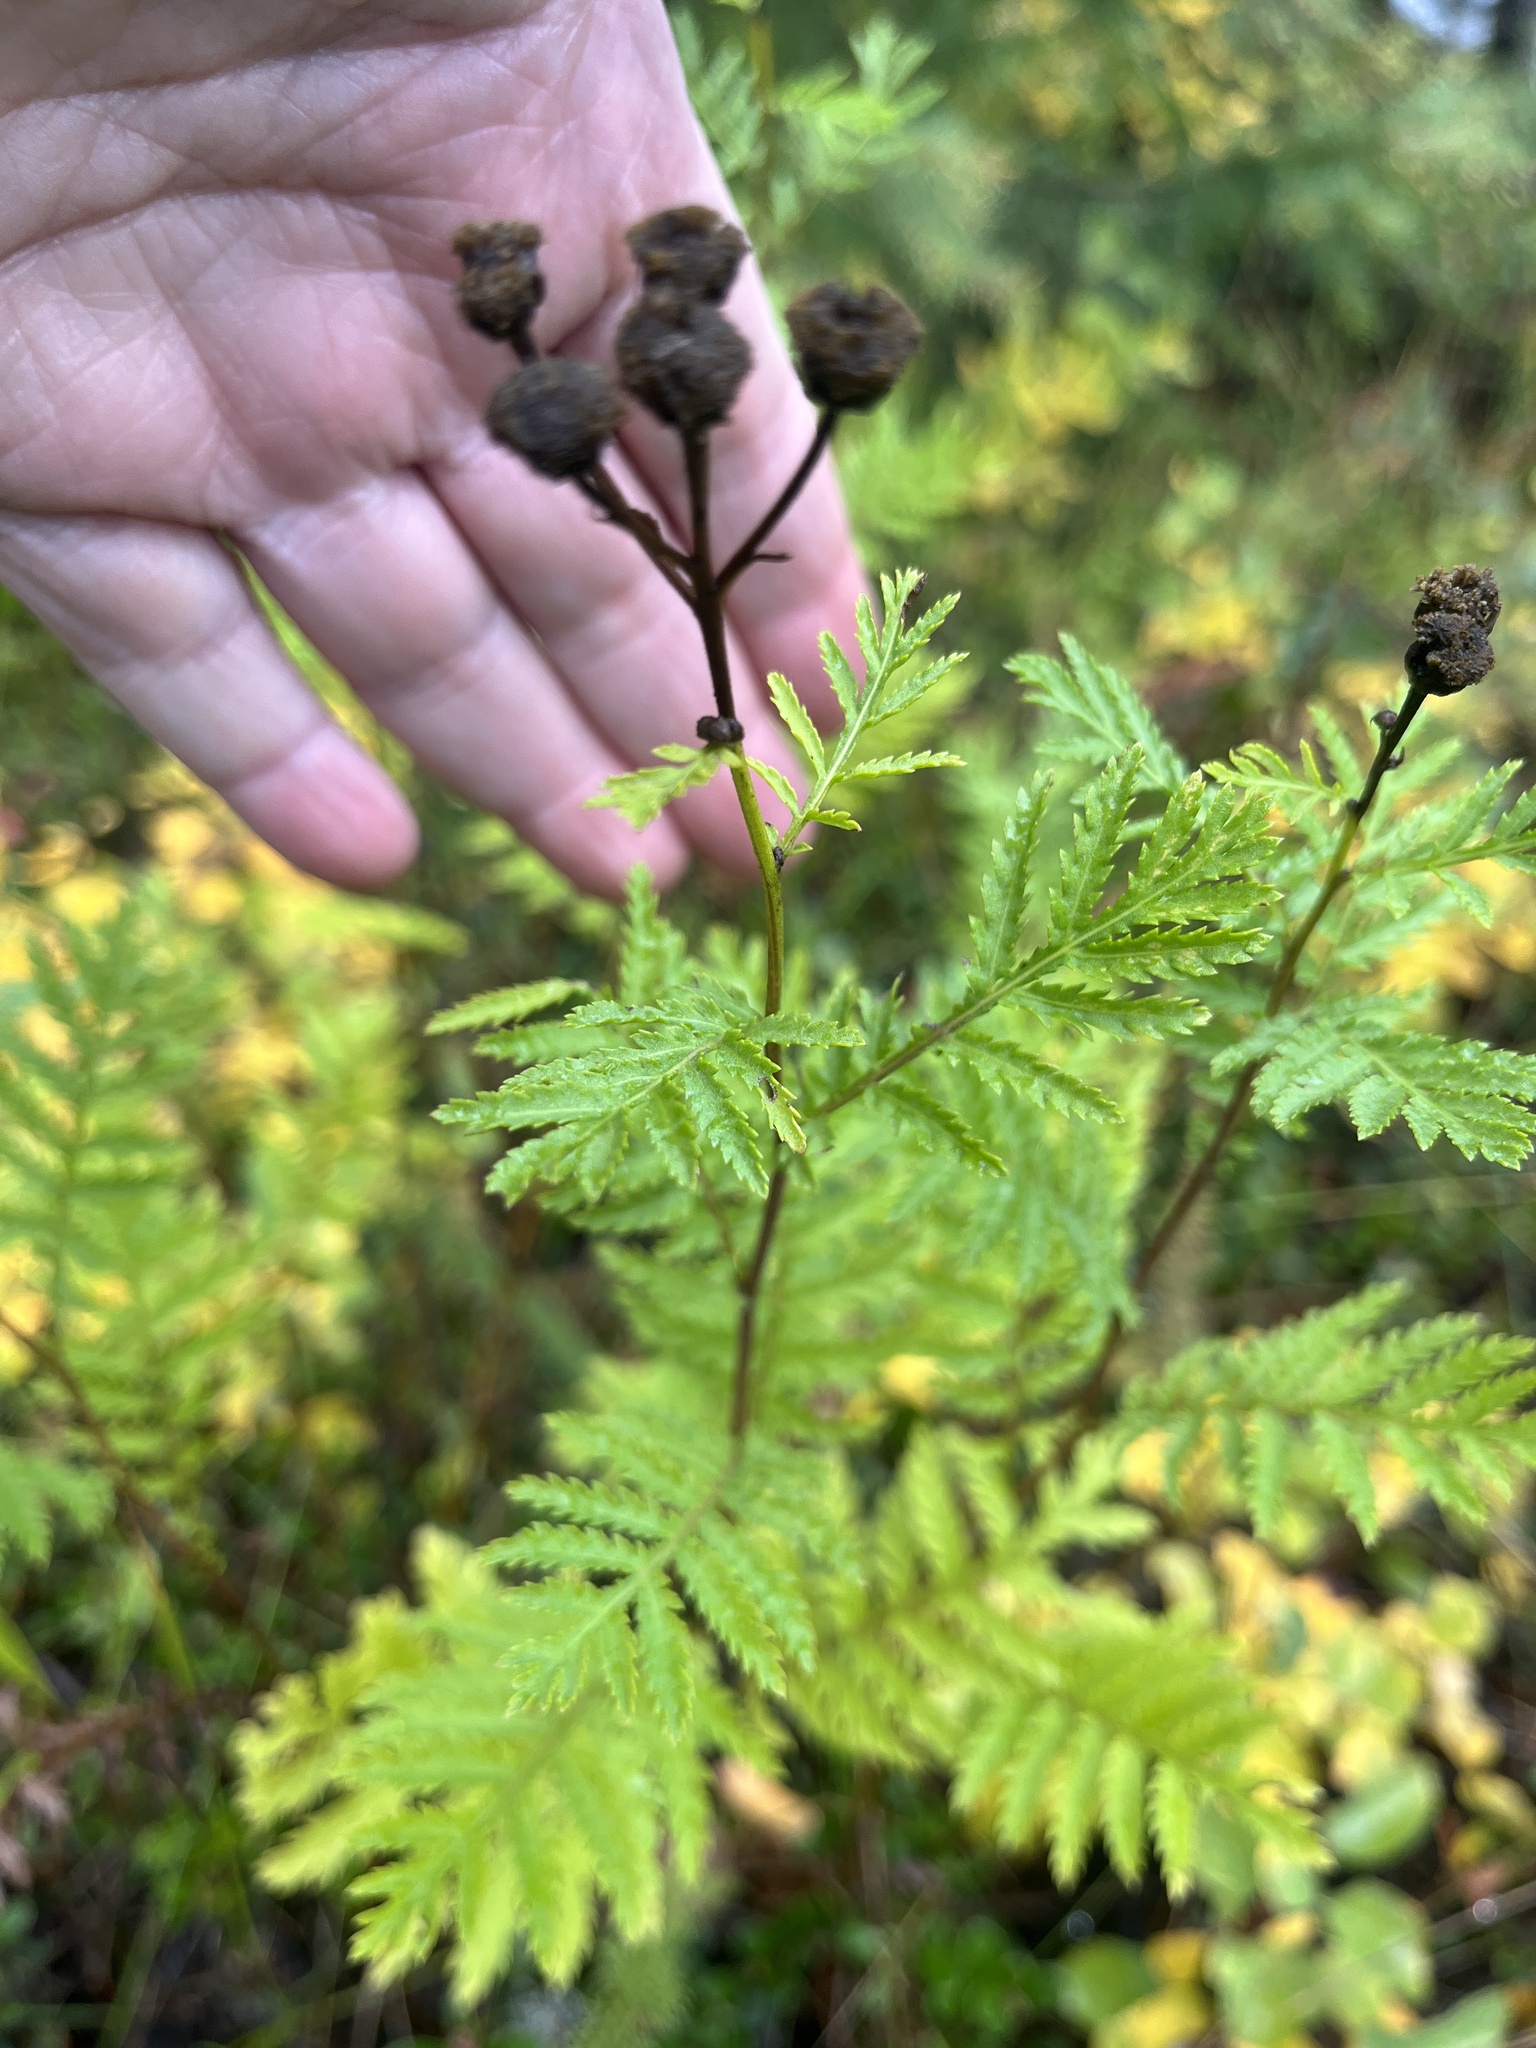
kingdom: Plantae
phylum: Tracheophyta
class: Magnoliopsida
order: Asterales
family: Asteraceae
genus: Tanacetum
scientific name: Tanacetum vulgare
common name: Common tansy
